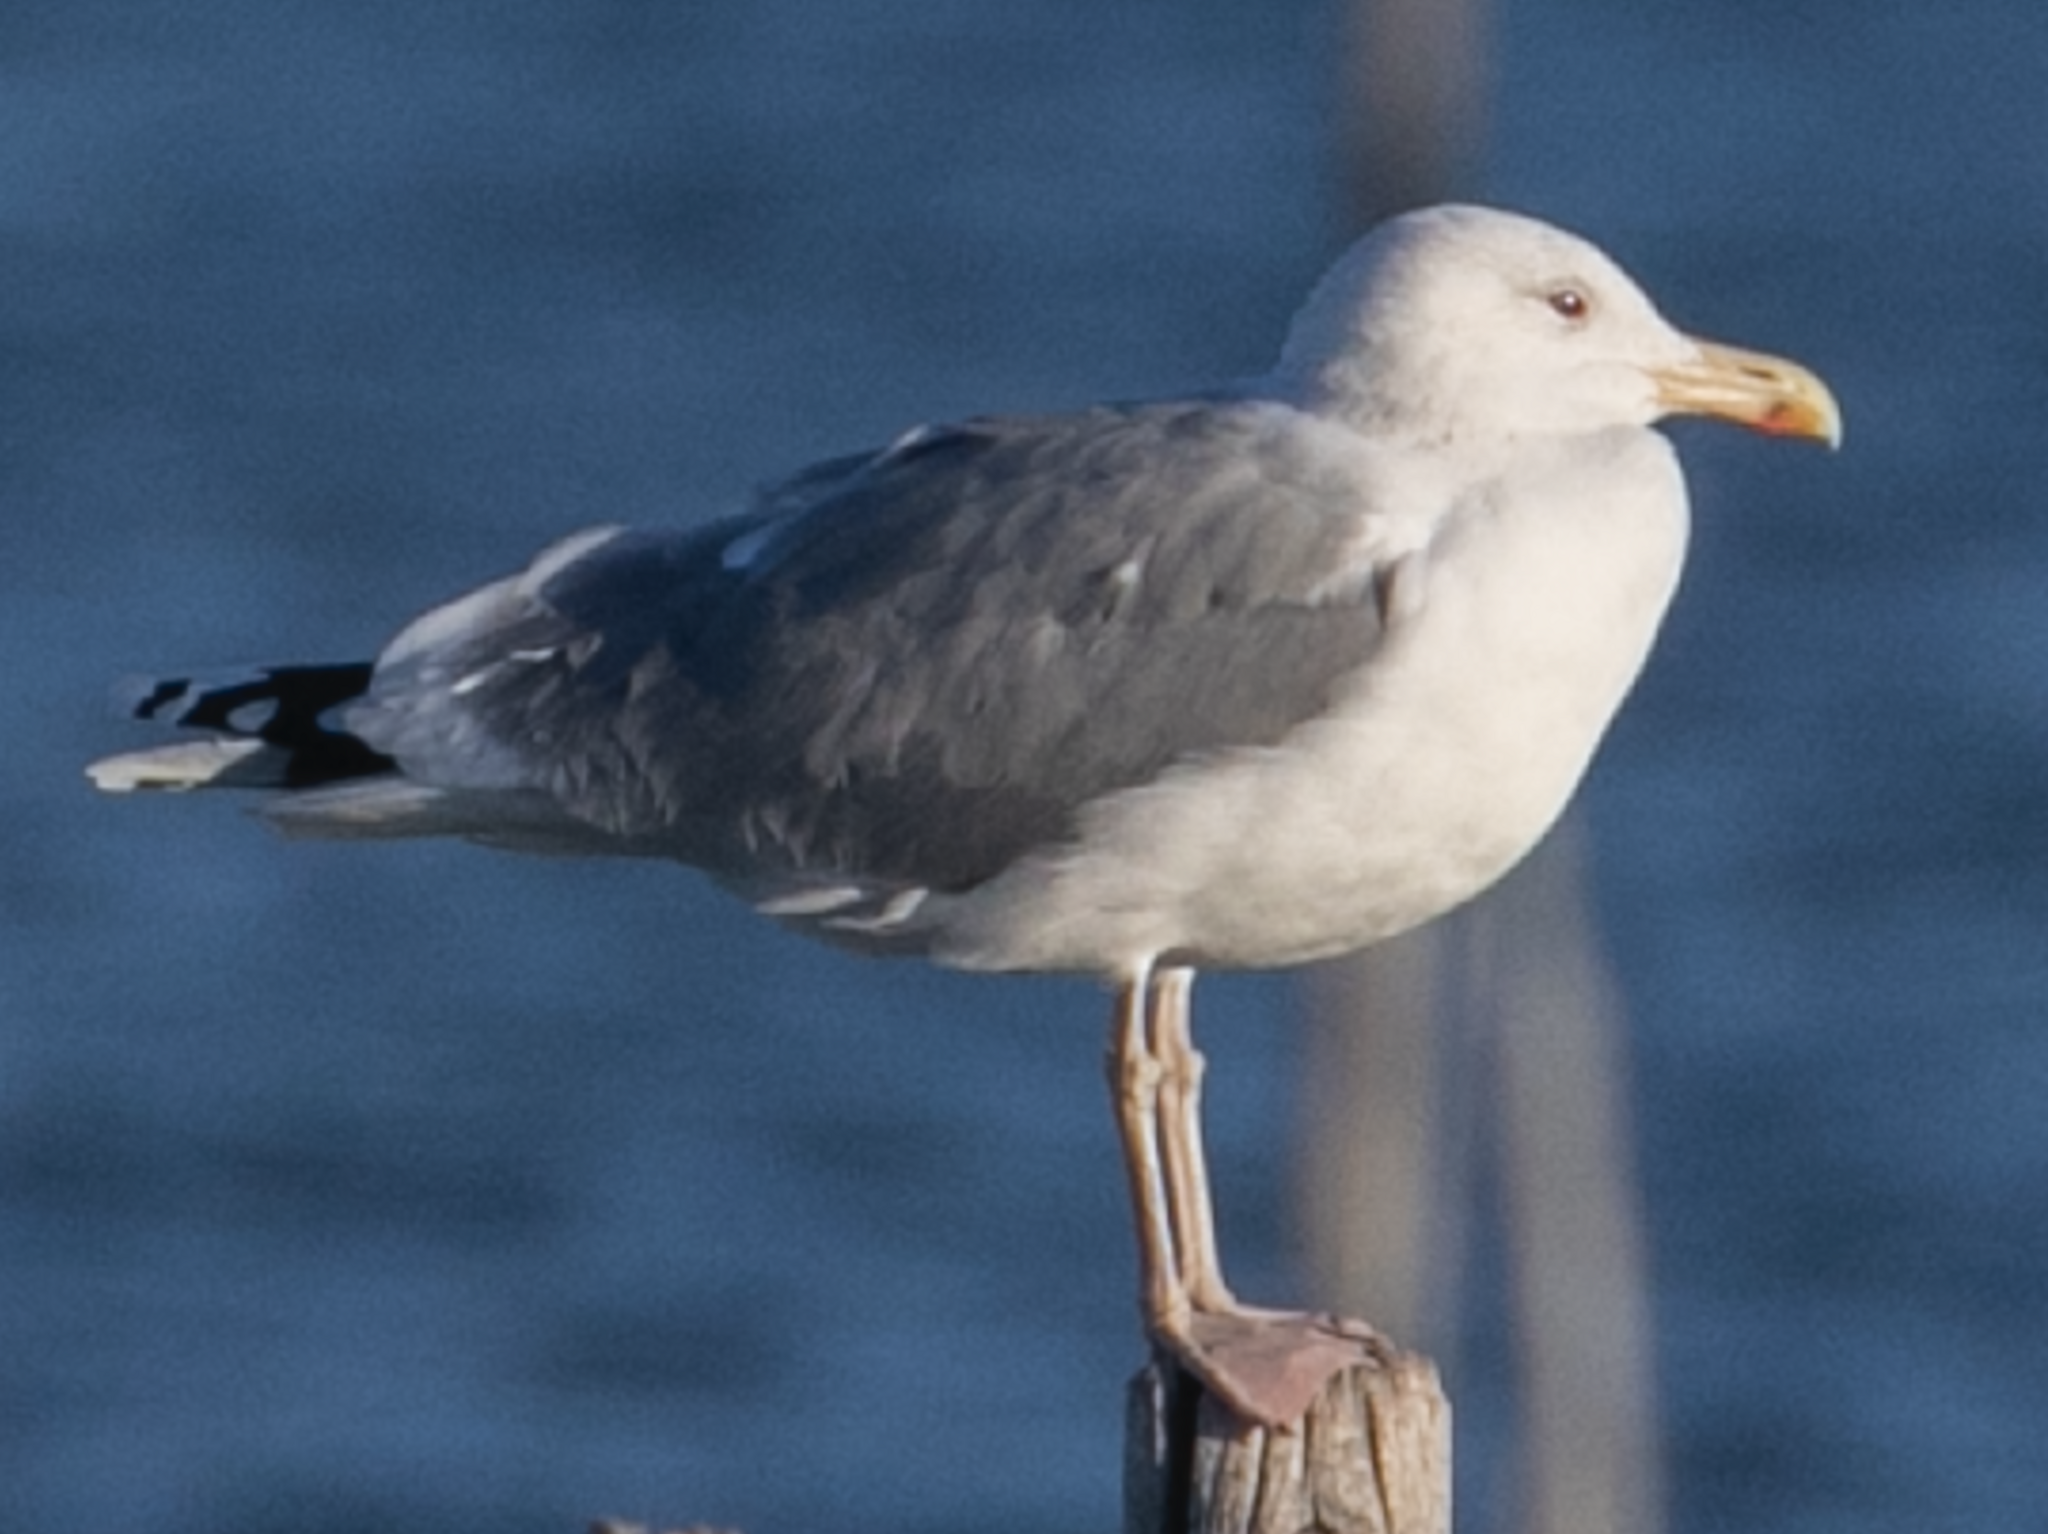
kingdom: Animalia
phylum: Chordata
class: Aves
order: Charadriiformes
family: Laridae
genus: Larus
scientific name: Larus cachinnans
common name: Caspian gull
